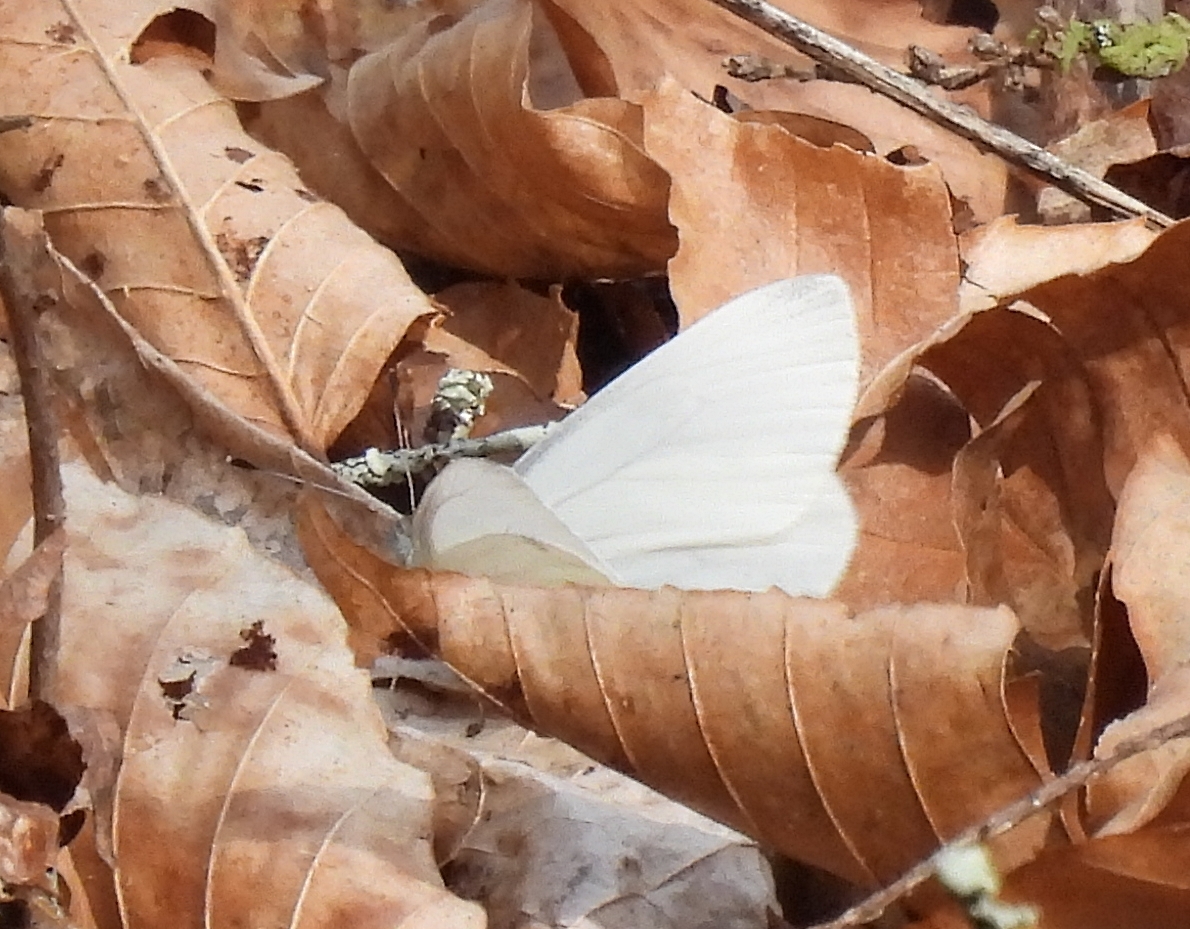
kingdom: Animalia
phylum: Arthropoda
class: Insecta
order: Lepidoptera
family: Pieridae
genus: Pieris
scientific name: Pieris virginiensis
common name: West virginia white
